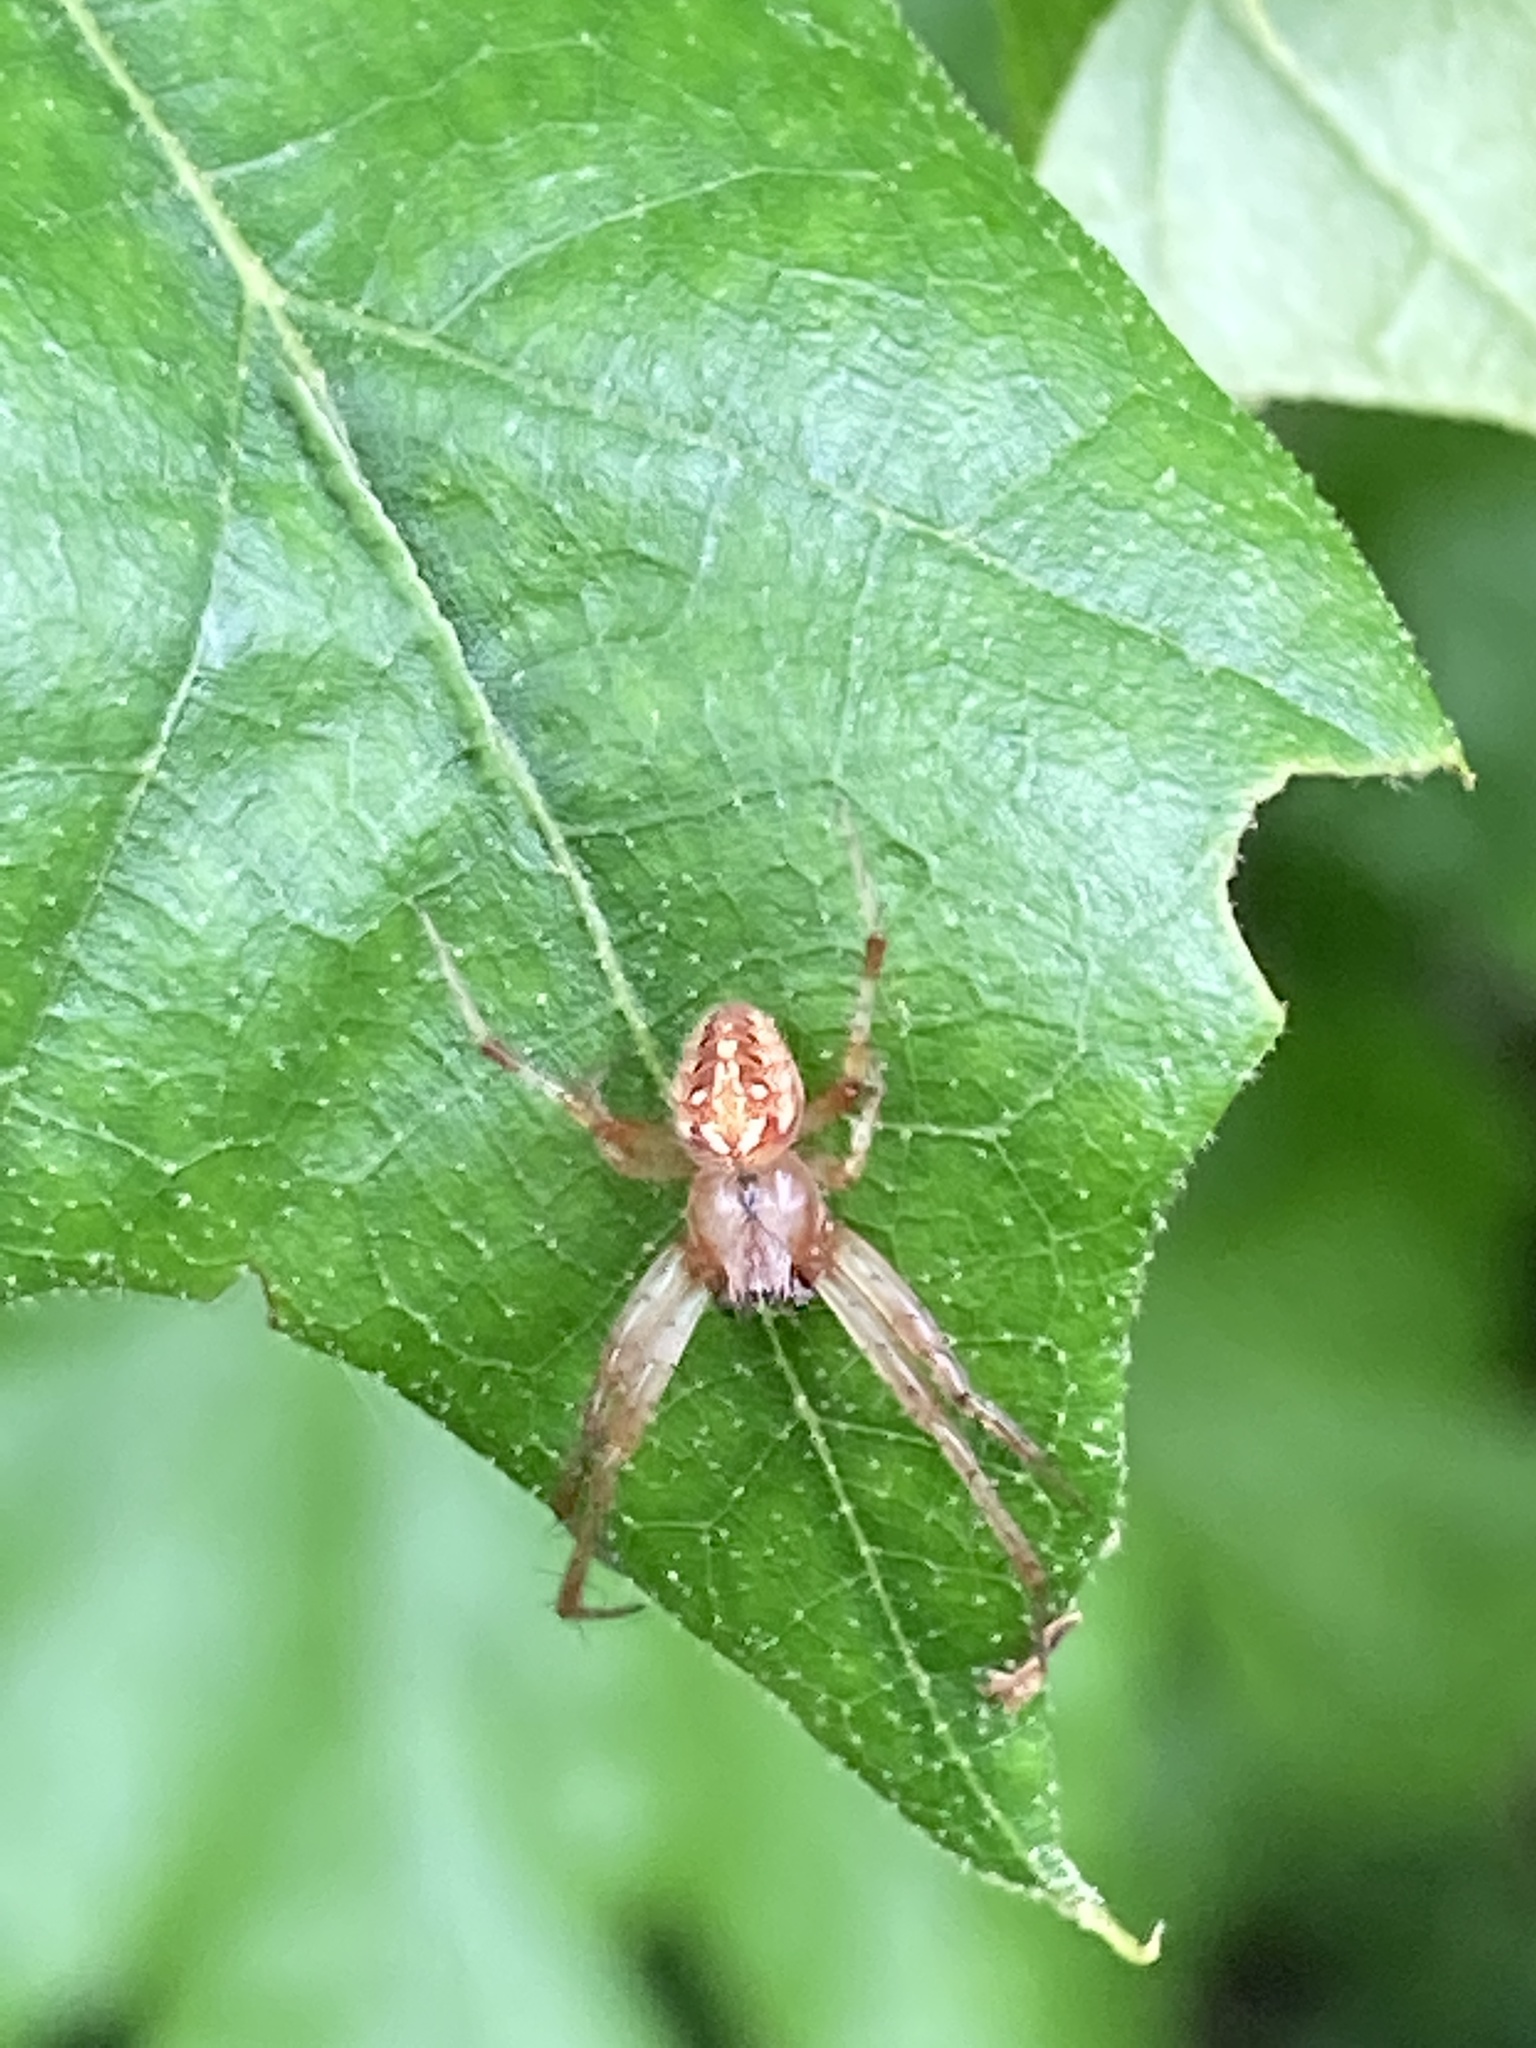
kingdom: Animalia
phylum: Arthropoda
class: Arachnida
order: Araneae
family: Araneidae
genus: Neoscona
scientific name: Neoscona arabesca
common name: Orb weavers
